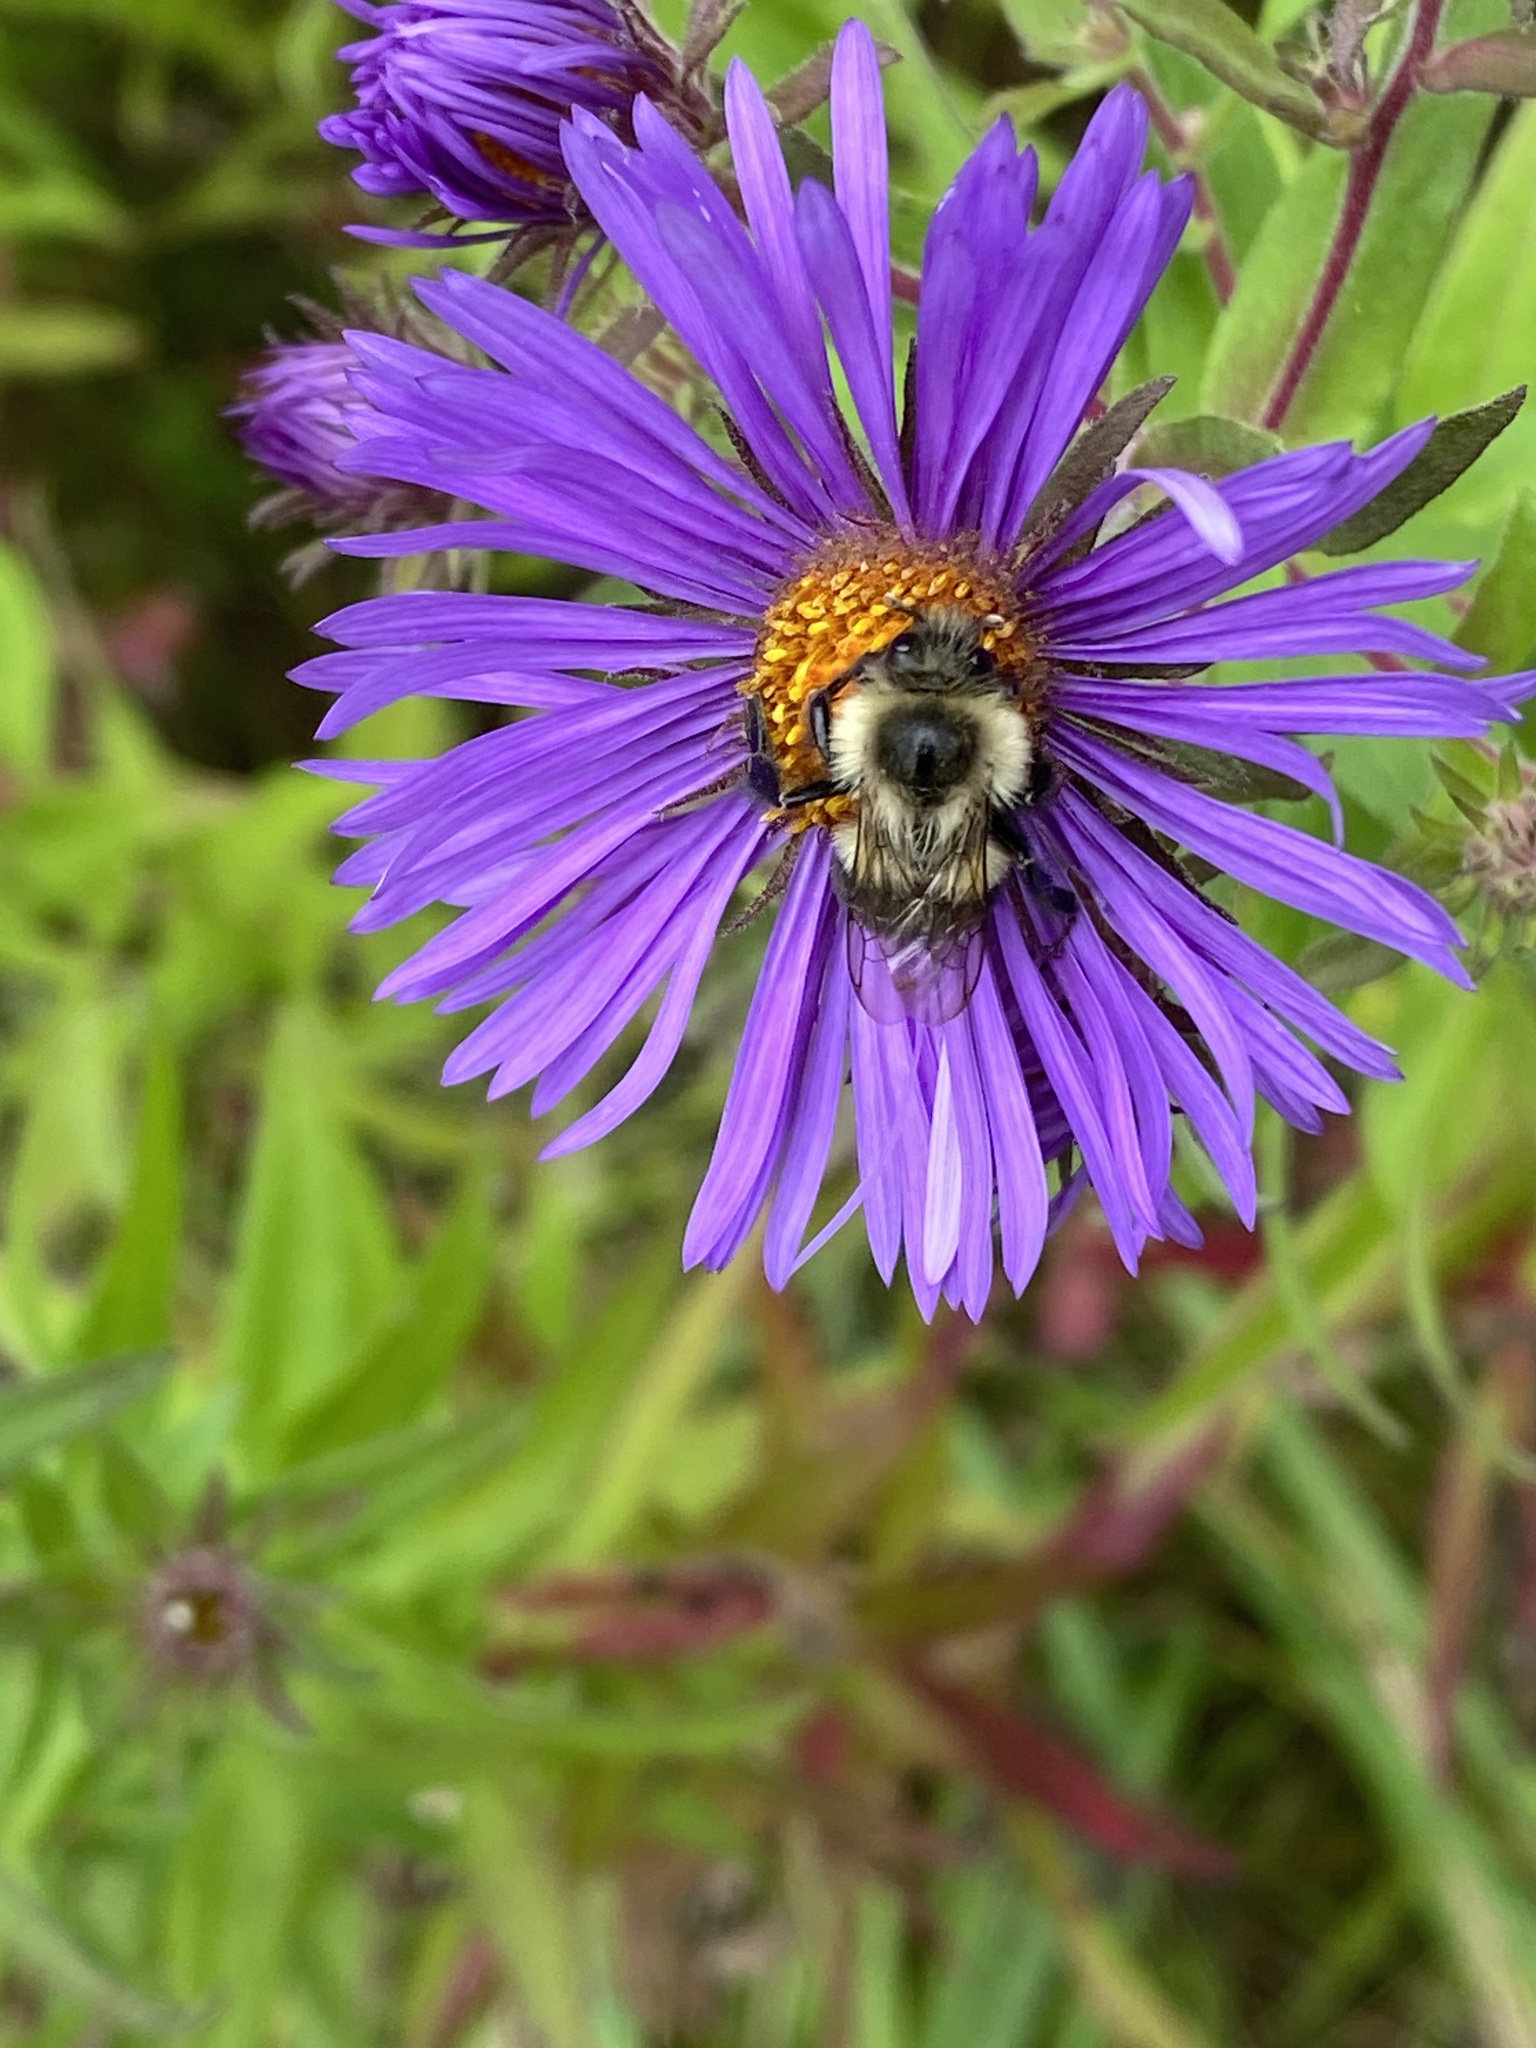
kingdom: Animalia
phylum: Arthropoda
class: Insecta
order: Hymenoptera
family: Apidae
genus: Bombus
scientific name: Bombus impatiens
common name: Common eastern bumble bee
